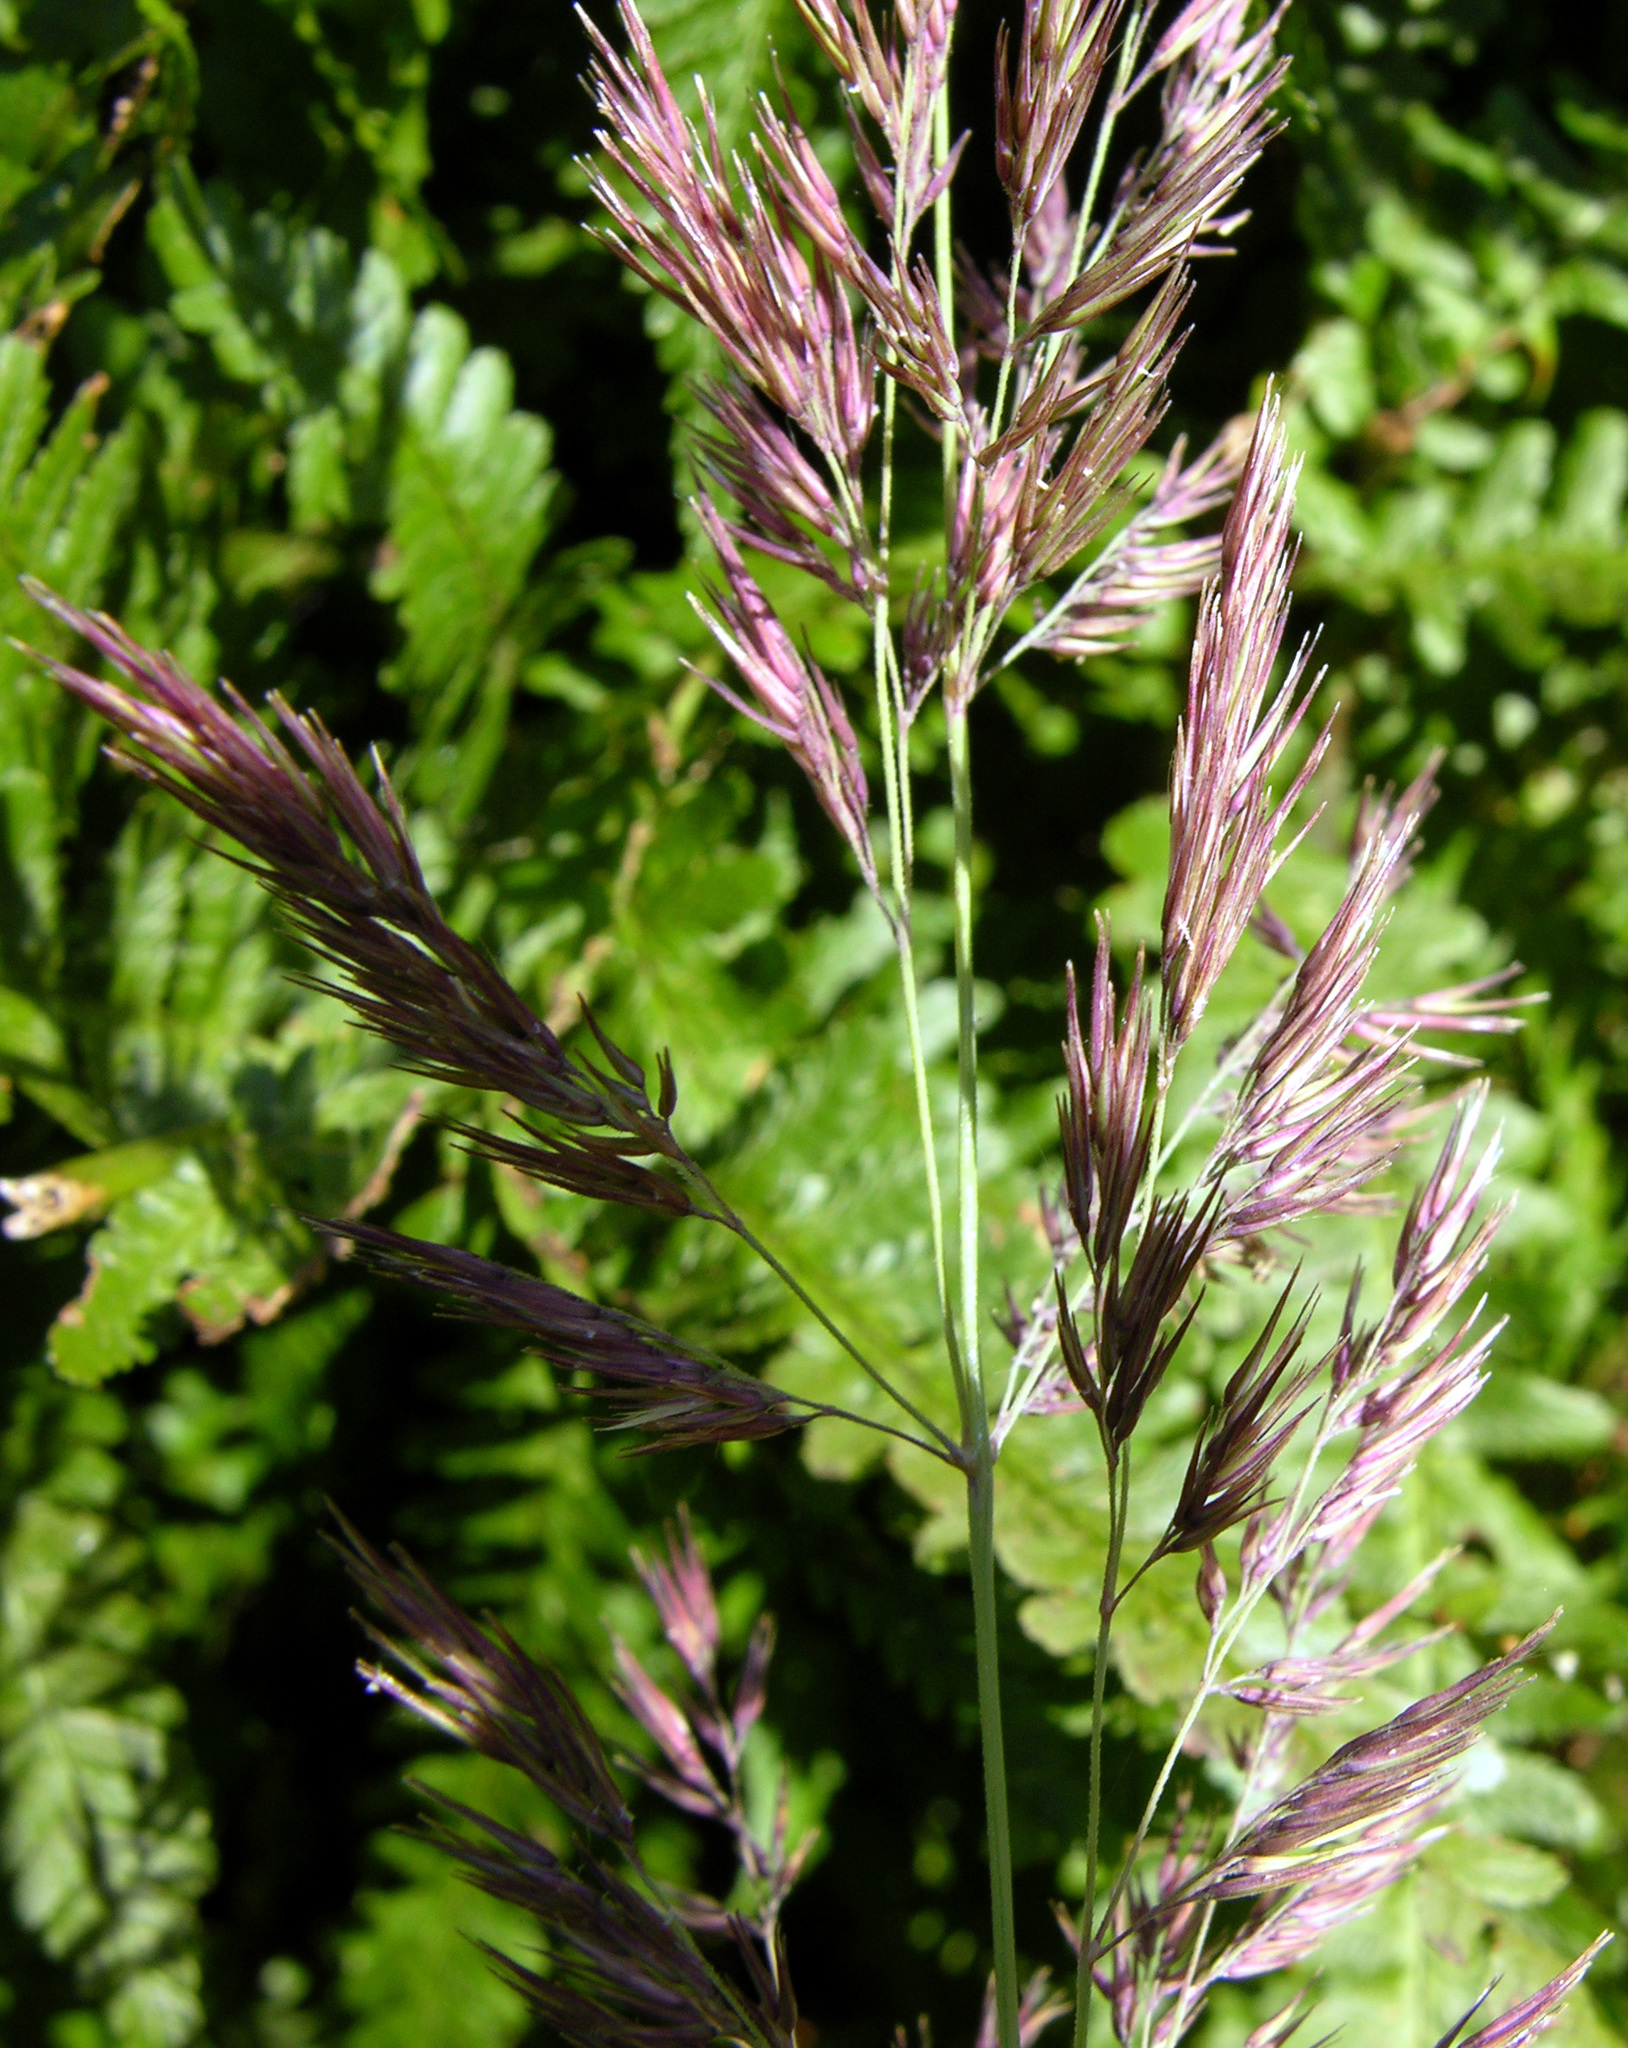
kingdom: Plantae
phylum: Tracheophyta
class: Liliopsida
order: Poales
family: Poaceae
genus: Calamagrostis
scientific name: Calamagrostis epigejos
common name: Wood small-reed
